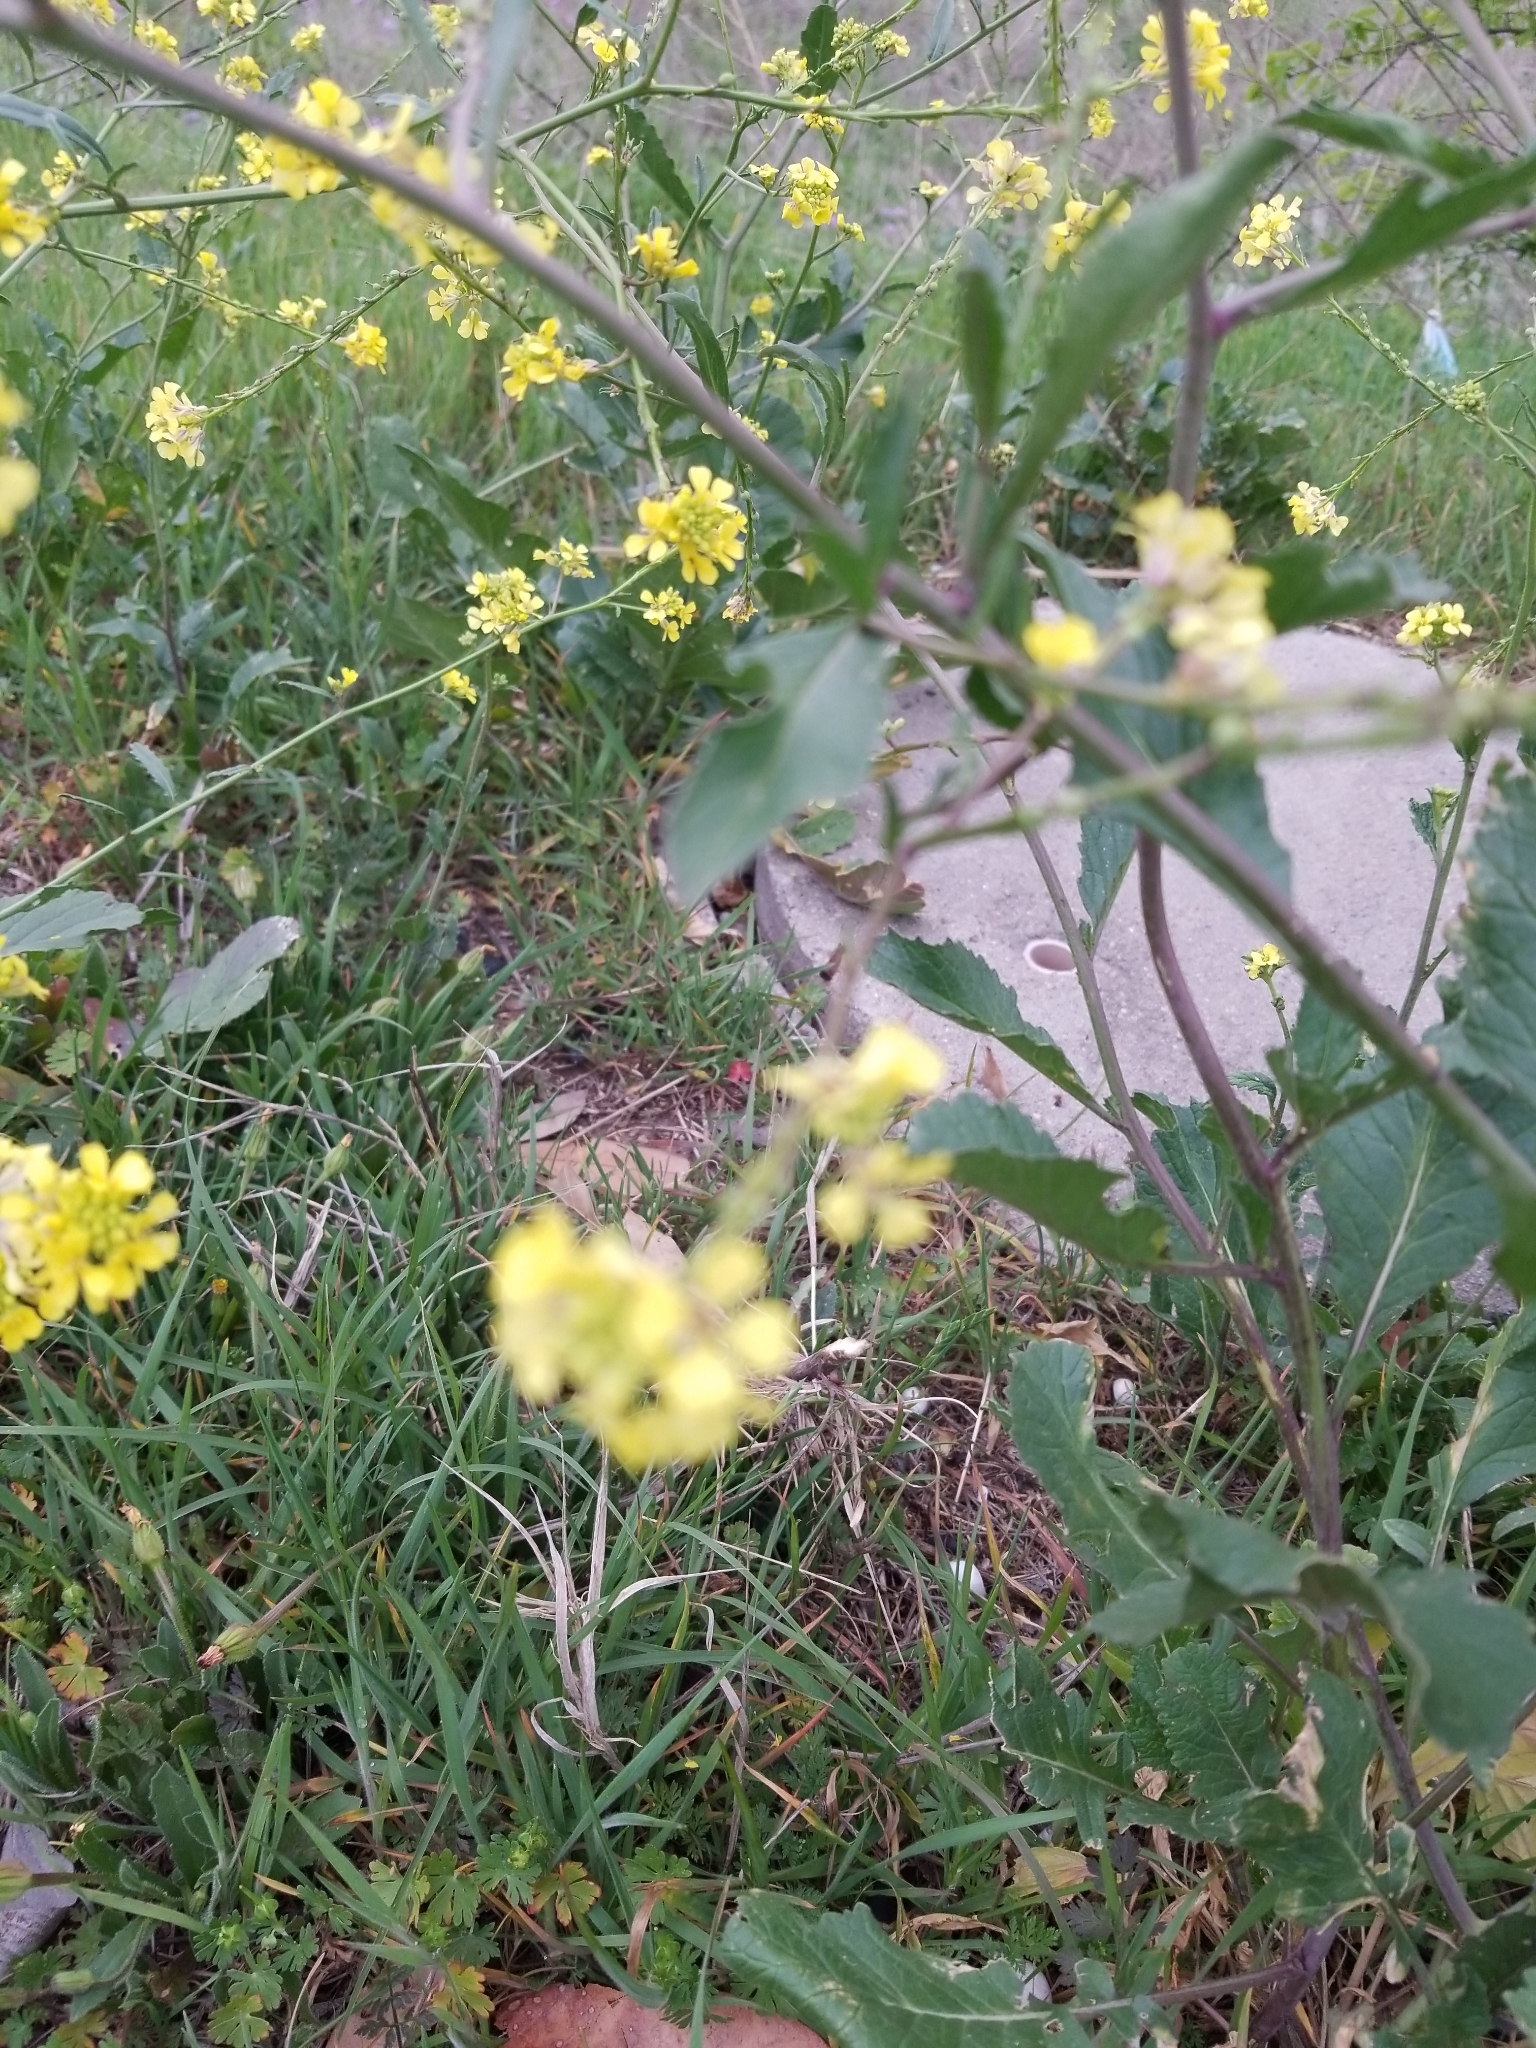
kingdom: Plantae
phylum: Tracheophyta
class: Magnoliopsida
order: Brassicales
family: Brassicaceae
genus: Rapistrum
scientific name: Rapistrum rugosum
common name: Annual bastardcabbage
